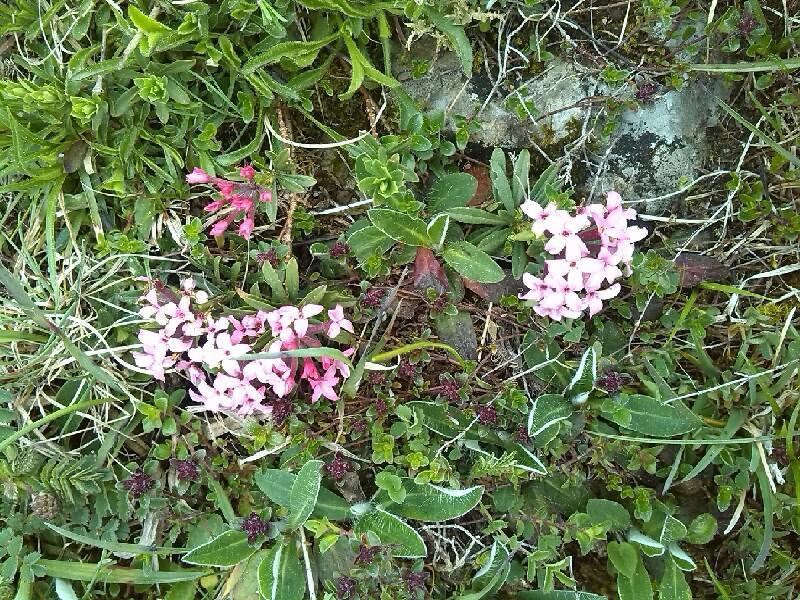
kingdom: Plantae
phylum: Tracheophyta
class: Magnoliopsida
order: Malvales
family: Thymelaeaceae
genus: Daphne
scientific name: Daphne cneorum
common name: Garland-flower
